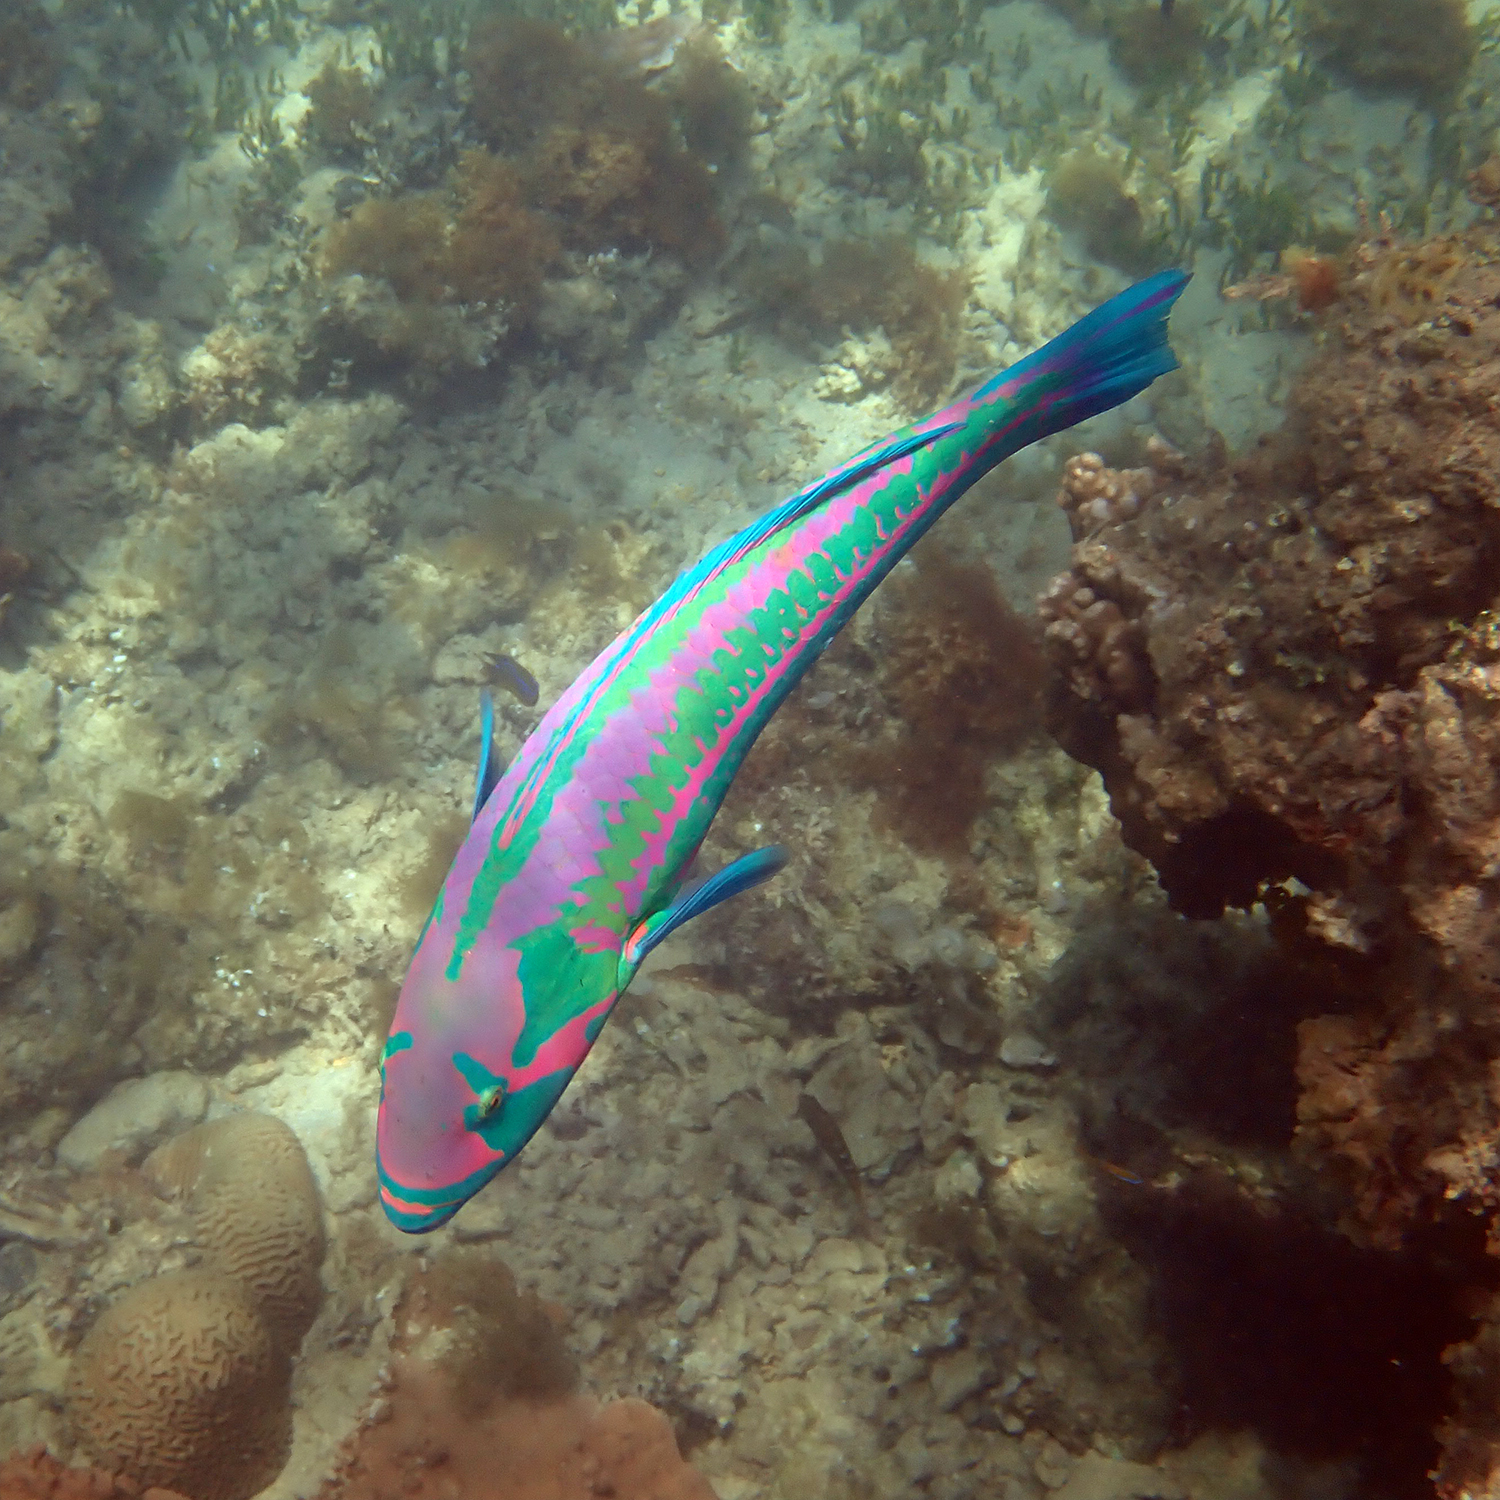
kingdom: Animalia
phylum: Chordata
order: Perciformes
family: Labridae
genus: Thalassoma
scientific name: Thalassoma purpureum
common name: Parrotfish
